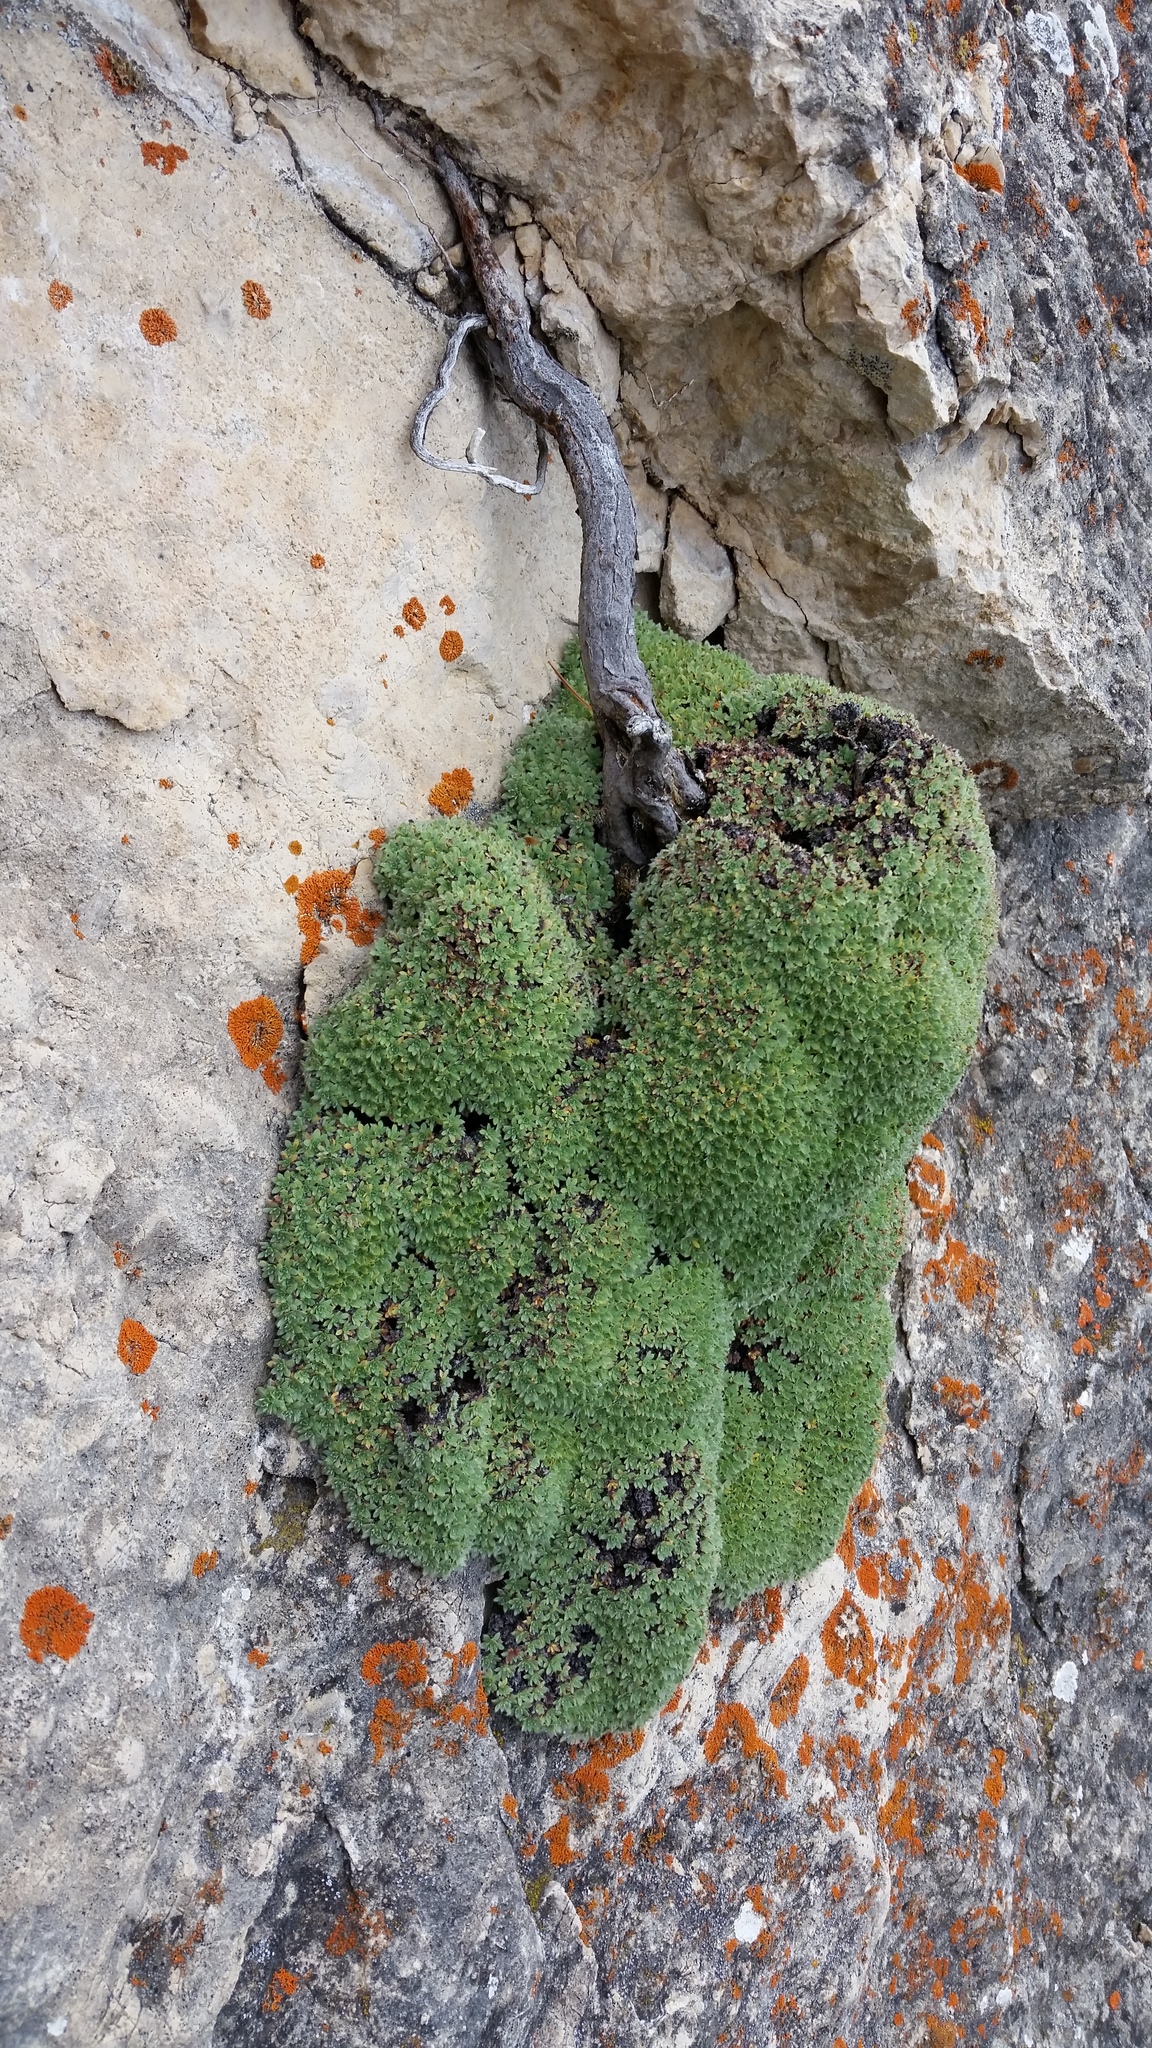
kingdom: Plantae
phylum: Tracheophyta
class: Magnoliopsida
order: Rosales
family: Rosaceae
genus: Kelseya
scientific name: Kelseya uniflora
